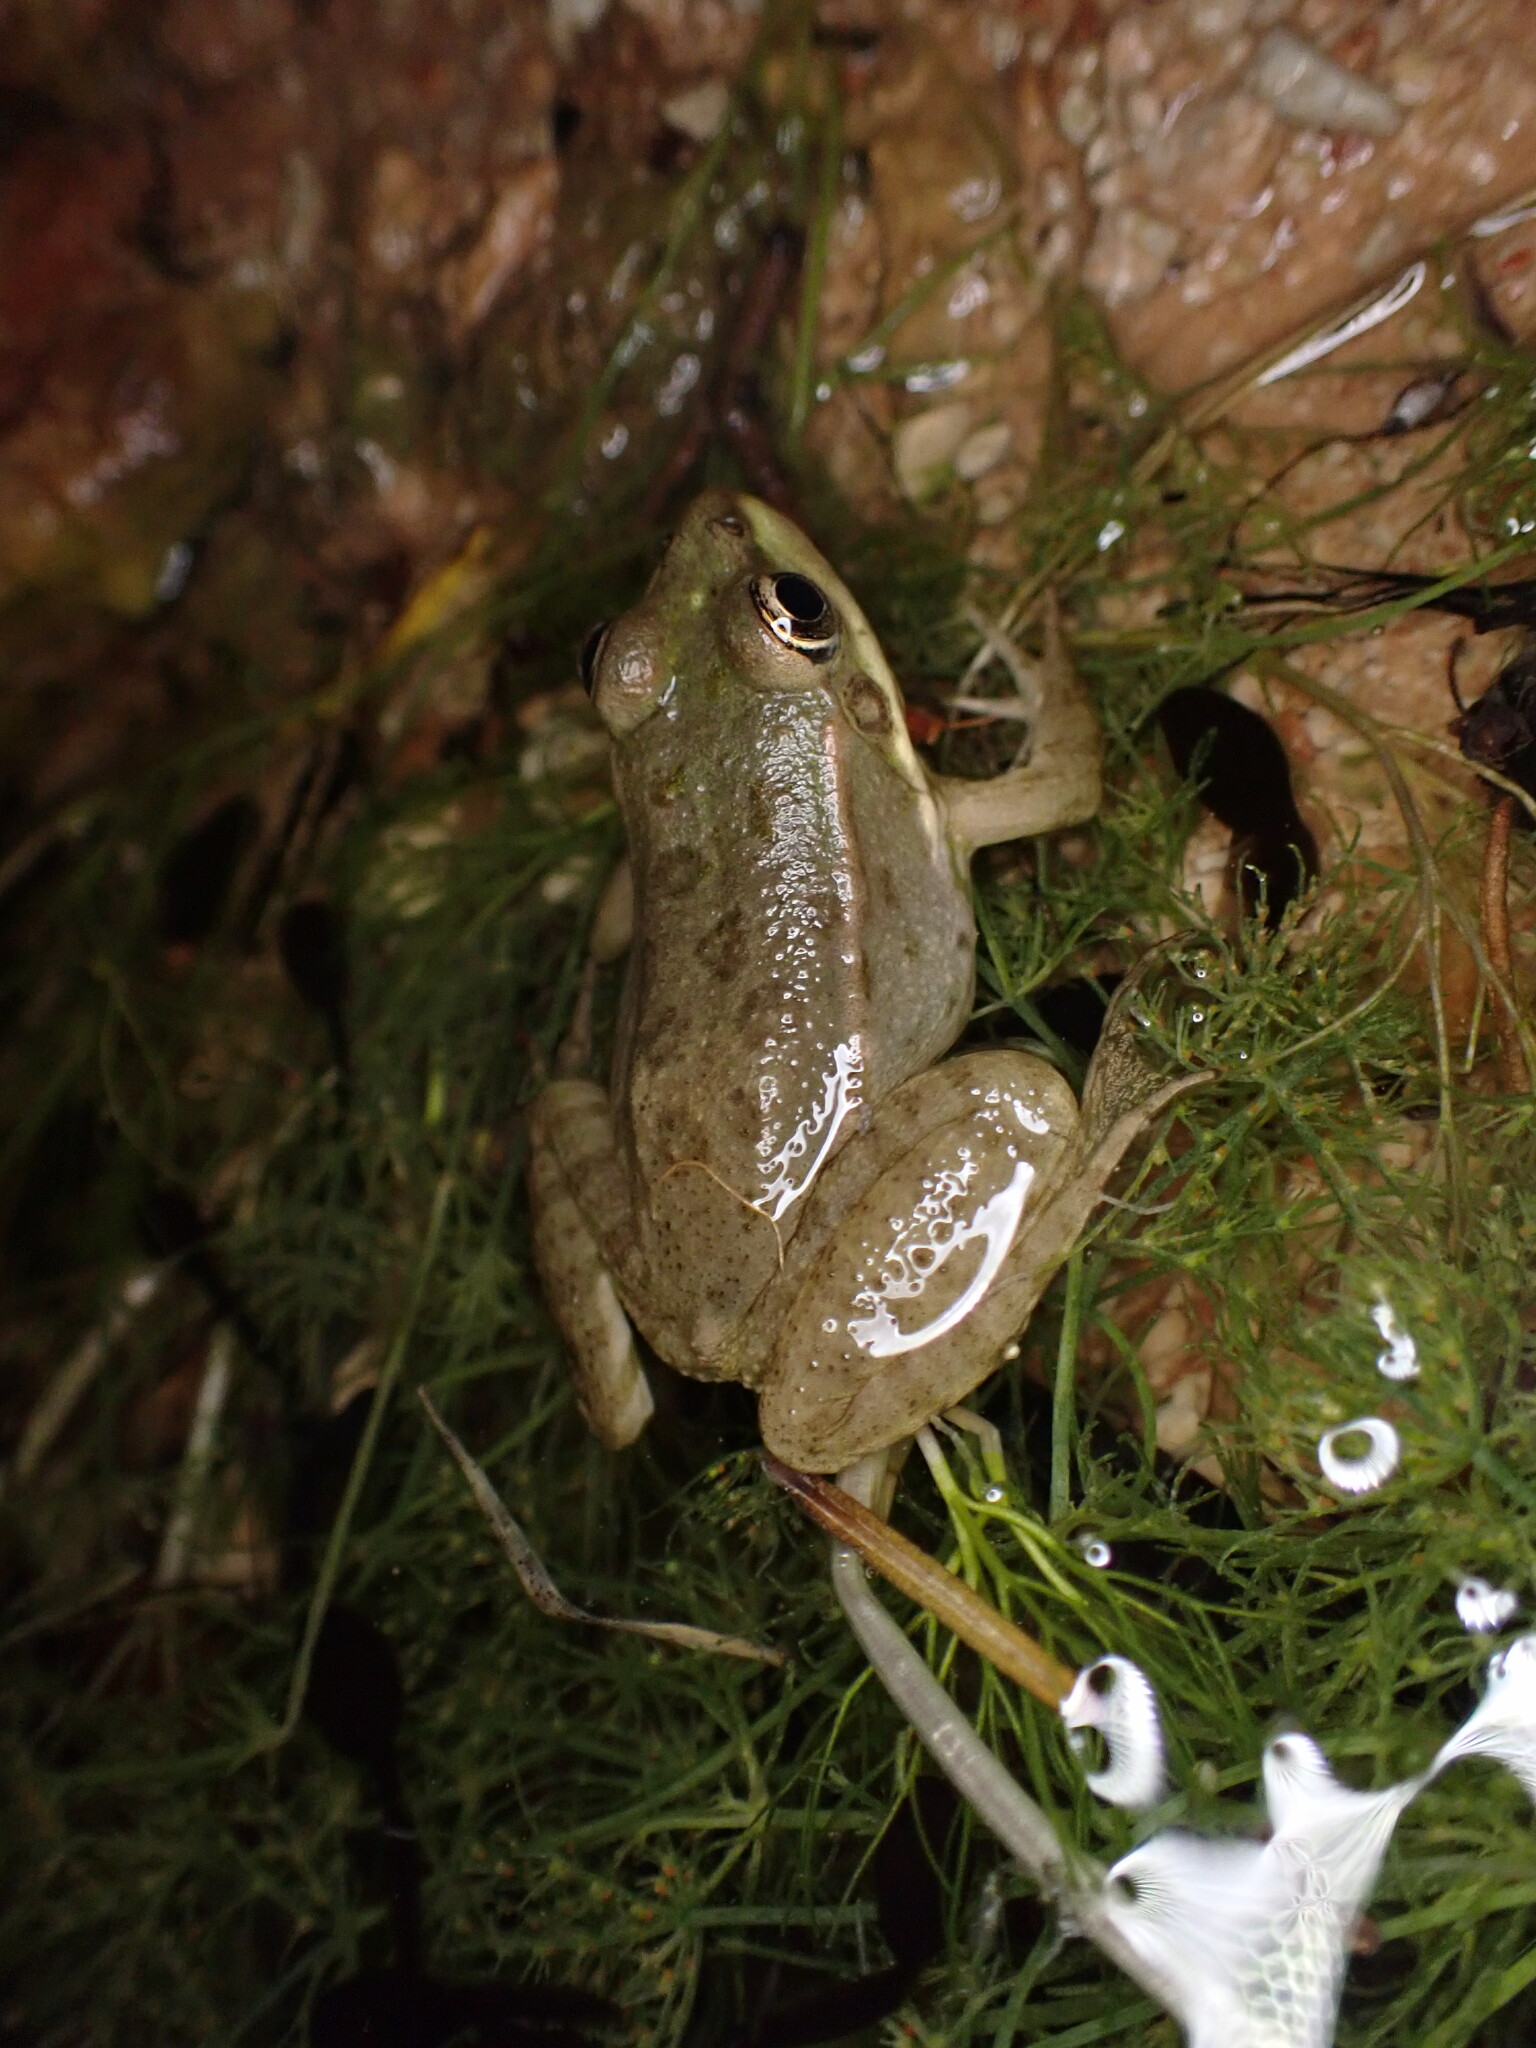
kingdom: Animalia
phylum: Chordata
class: Amphibia
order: Anura
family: Ranidae
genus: Pelophylax
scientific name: Pelophylax
